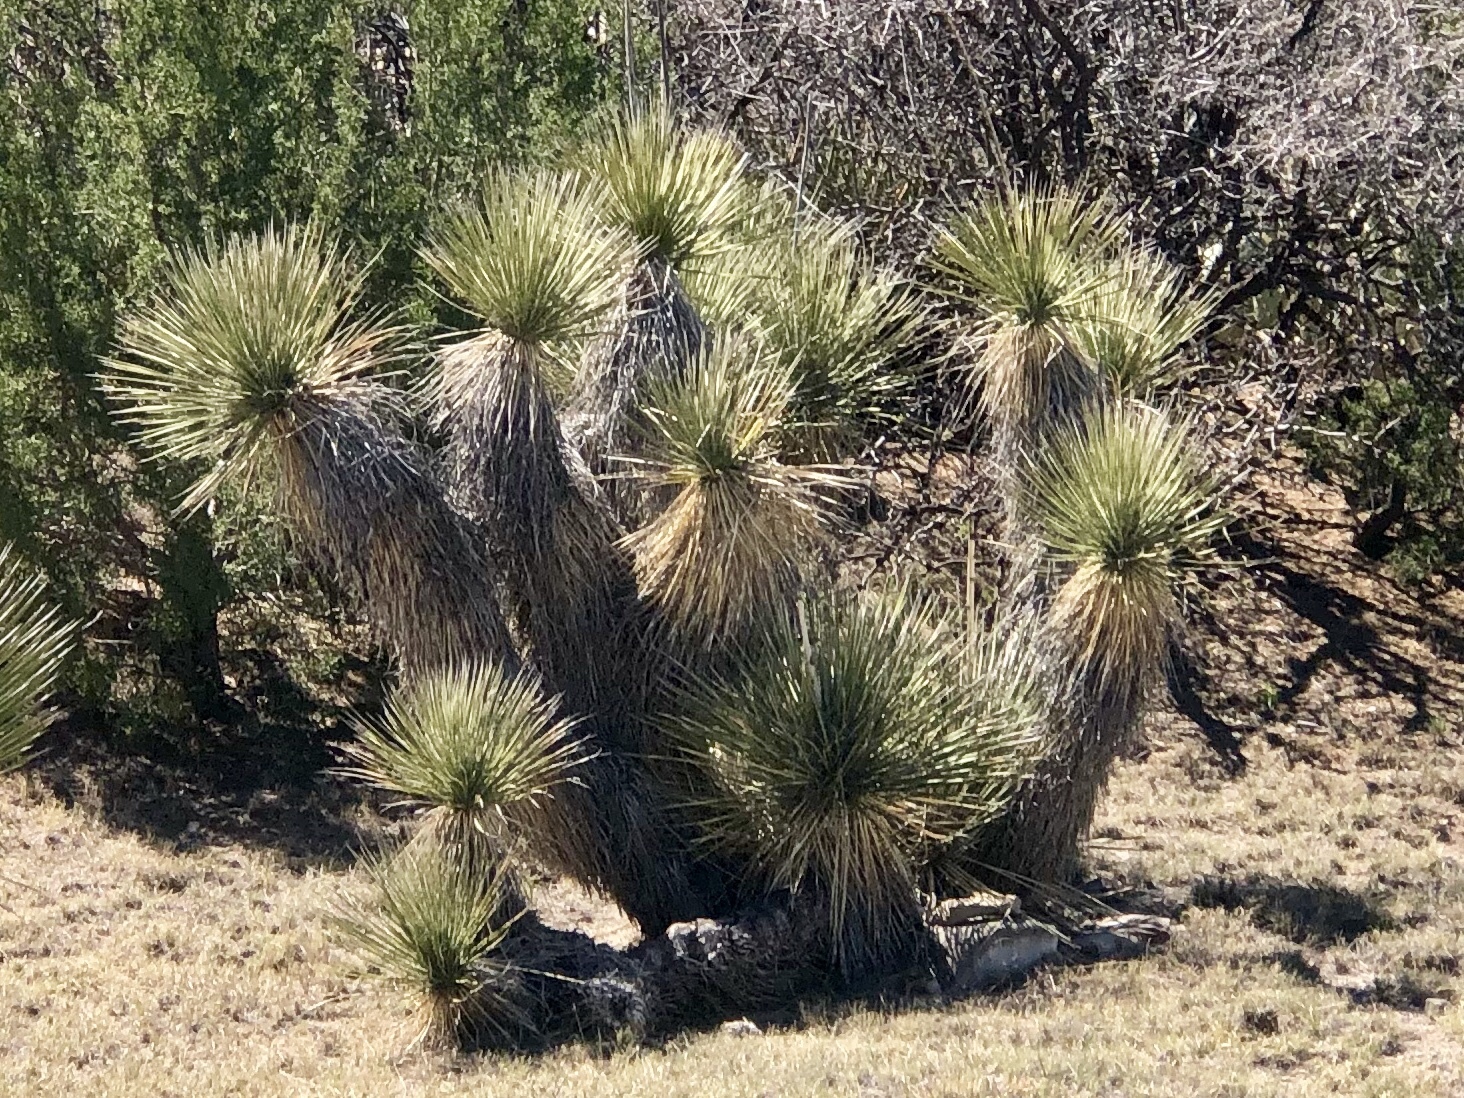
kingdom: Plantae
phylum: Tracheophyta
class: Liliopsida
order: Asparagales
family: Asparagaceae
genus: Yucca
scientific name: Yucca elata
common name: Palmella
